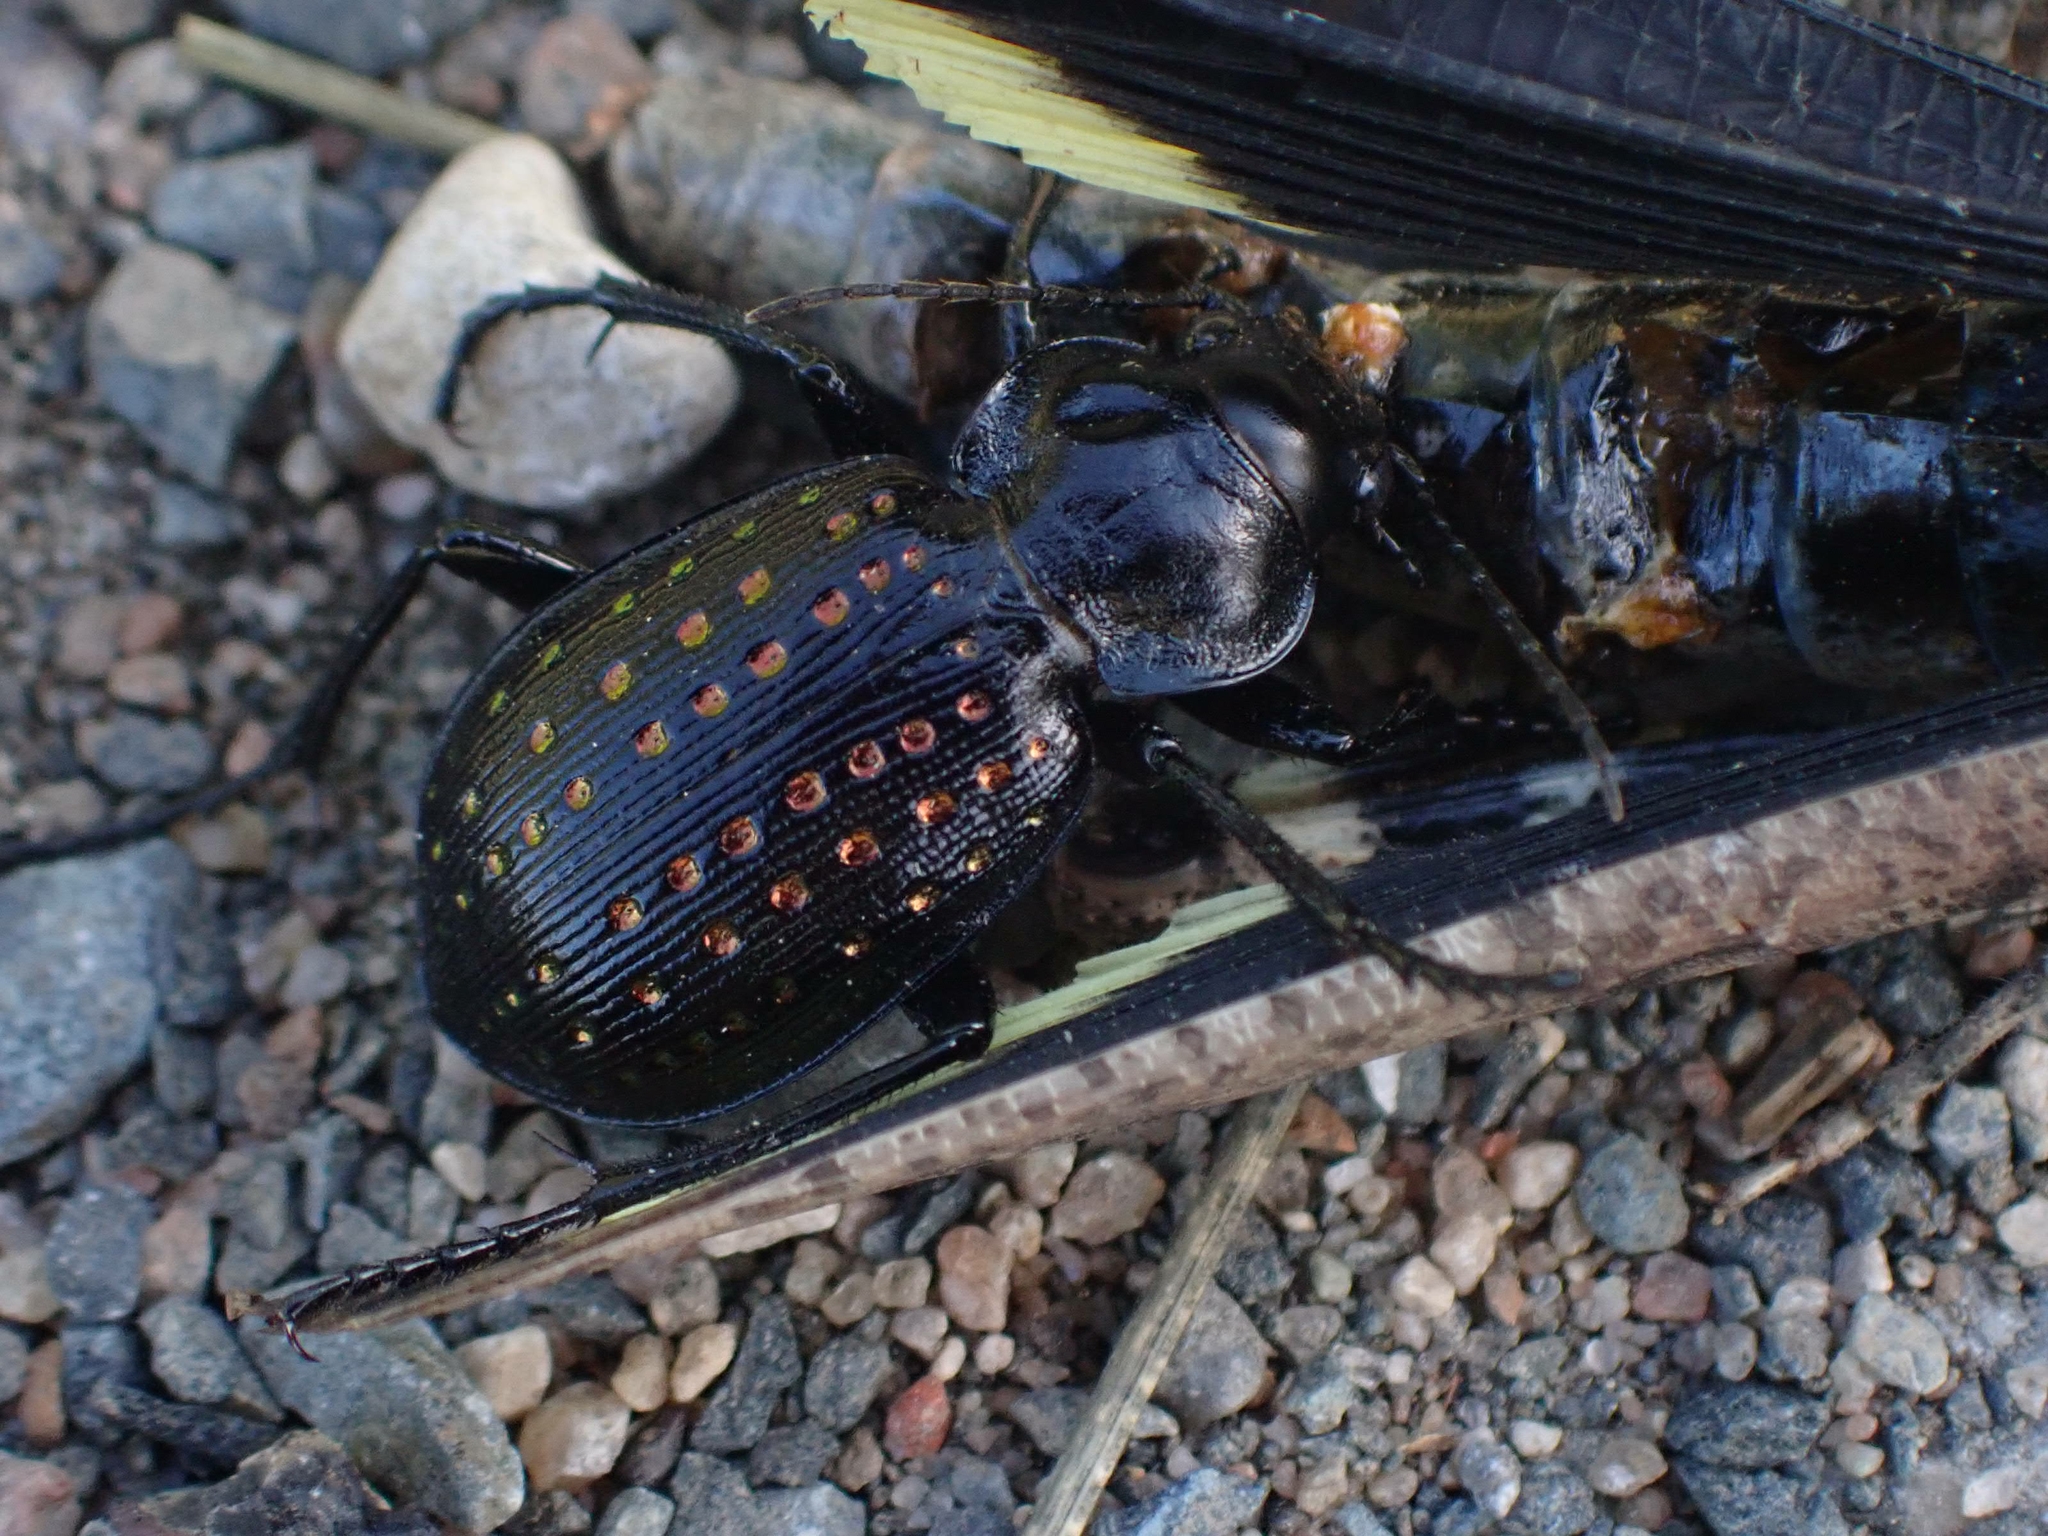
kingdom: Animalia
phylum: Arthropoda
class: Insecta
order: Coleoptera
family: Carabidae
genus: Calosoma
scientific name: Calosoma calidum
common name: Fiery hunter
